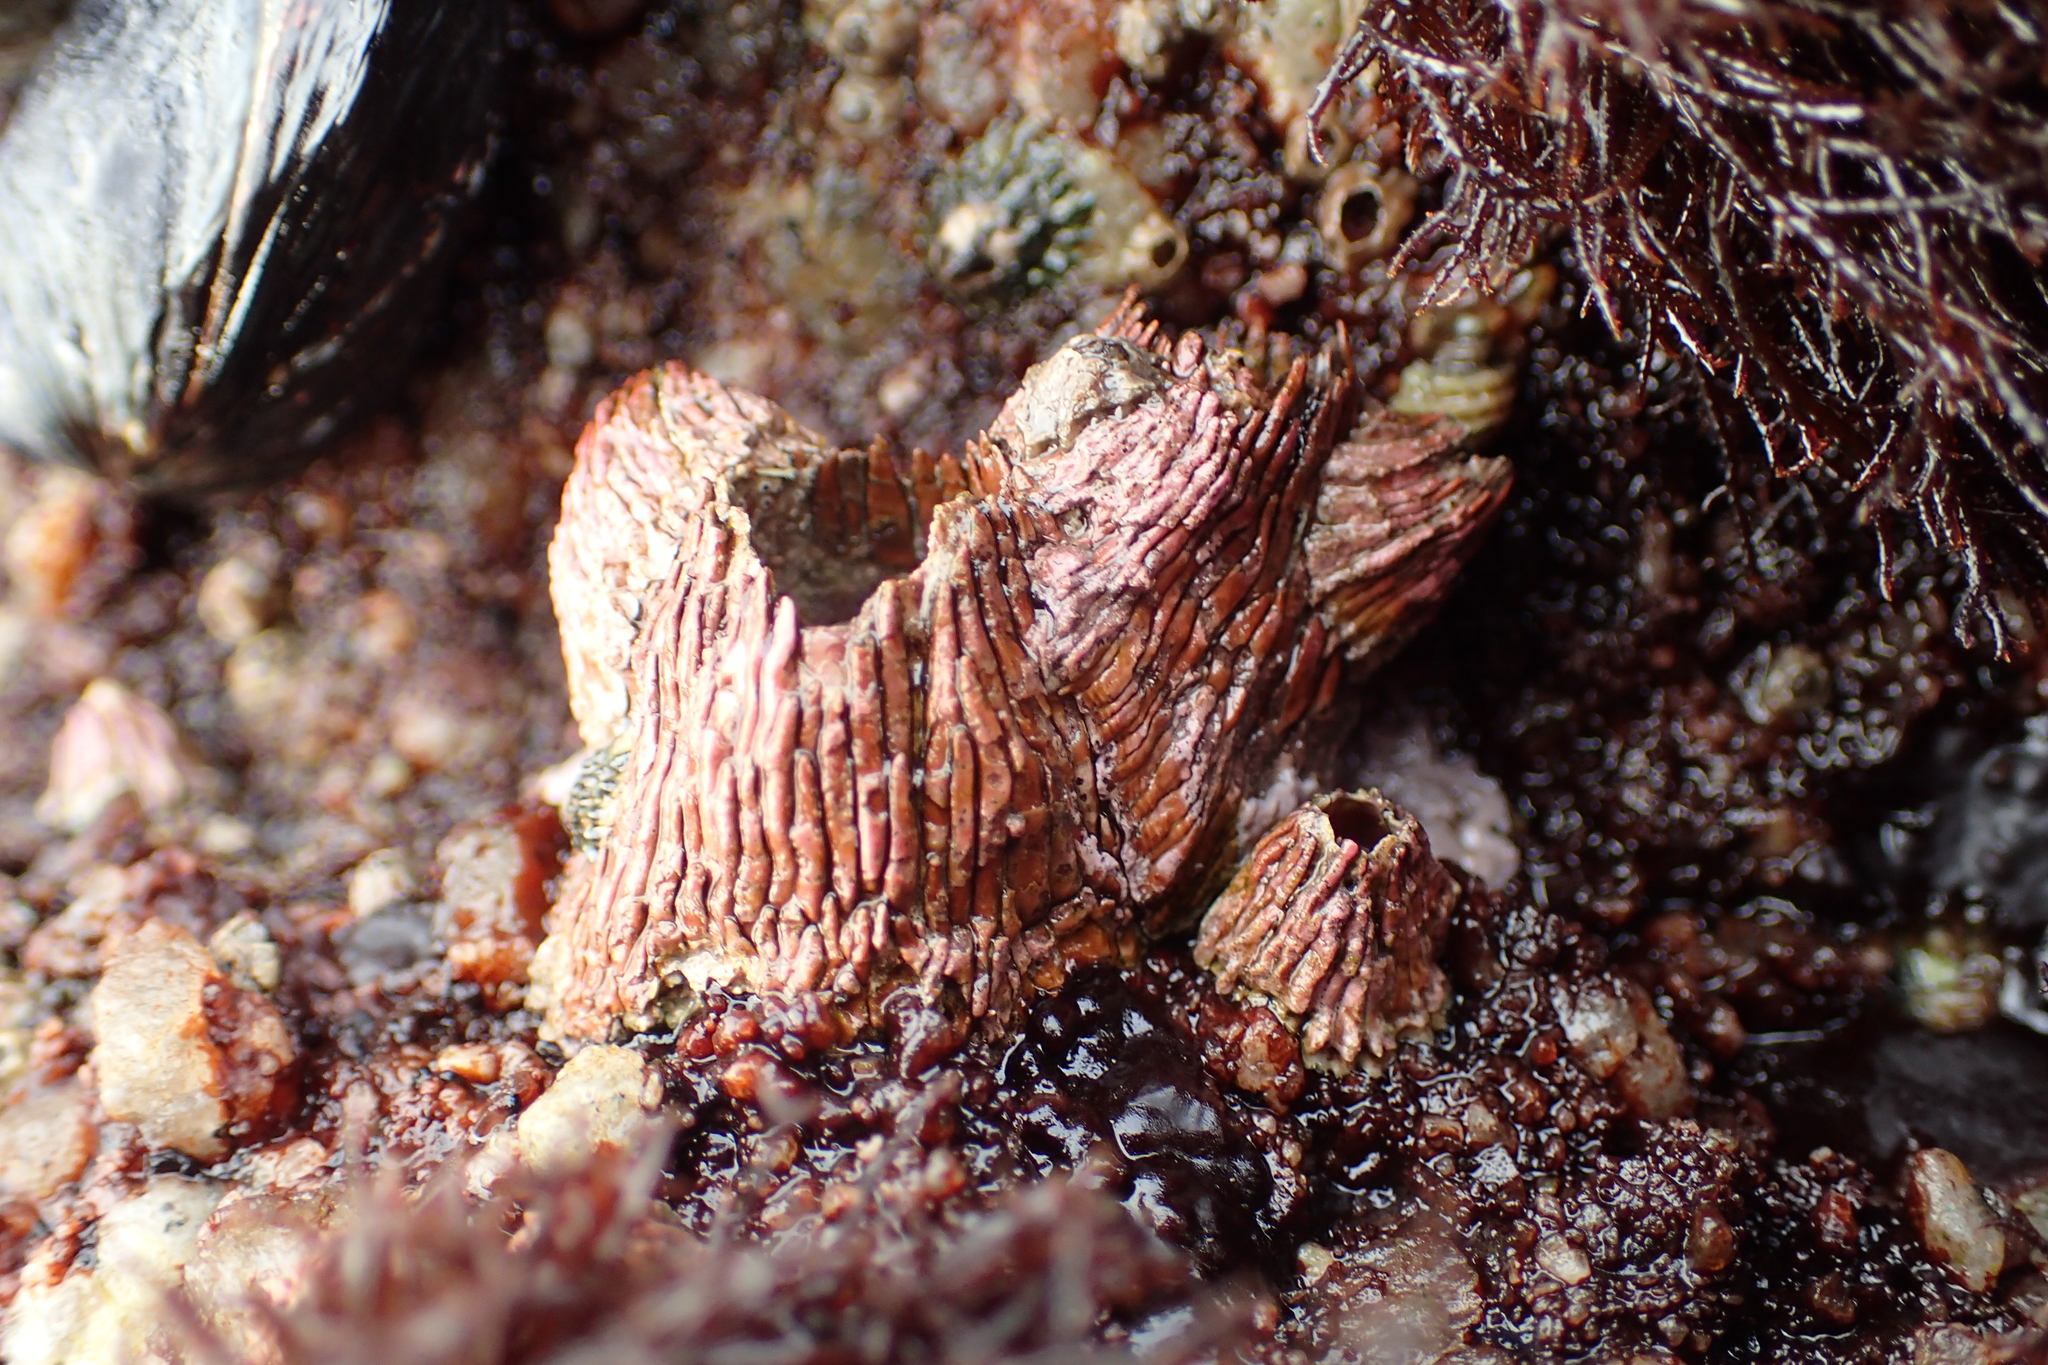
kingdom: Animalia
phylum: Arthropoda
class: Maxillopoda
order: Sessilia
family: Tetraclitidae
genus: Tetraclita
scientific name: Tetraclita rubescens
